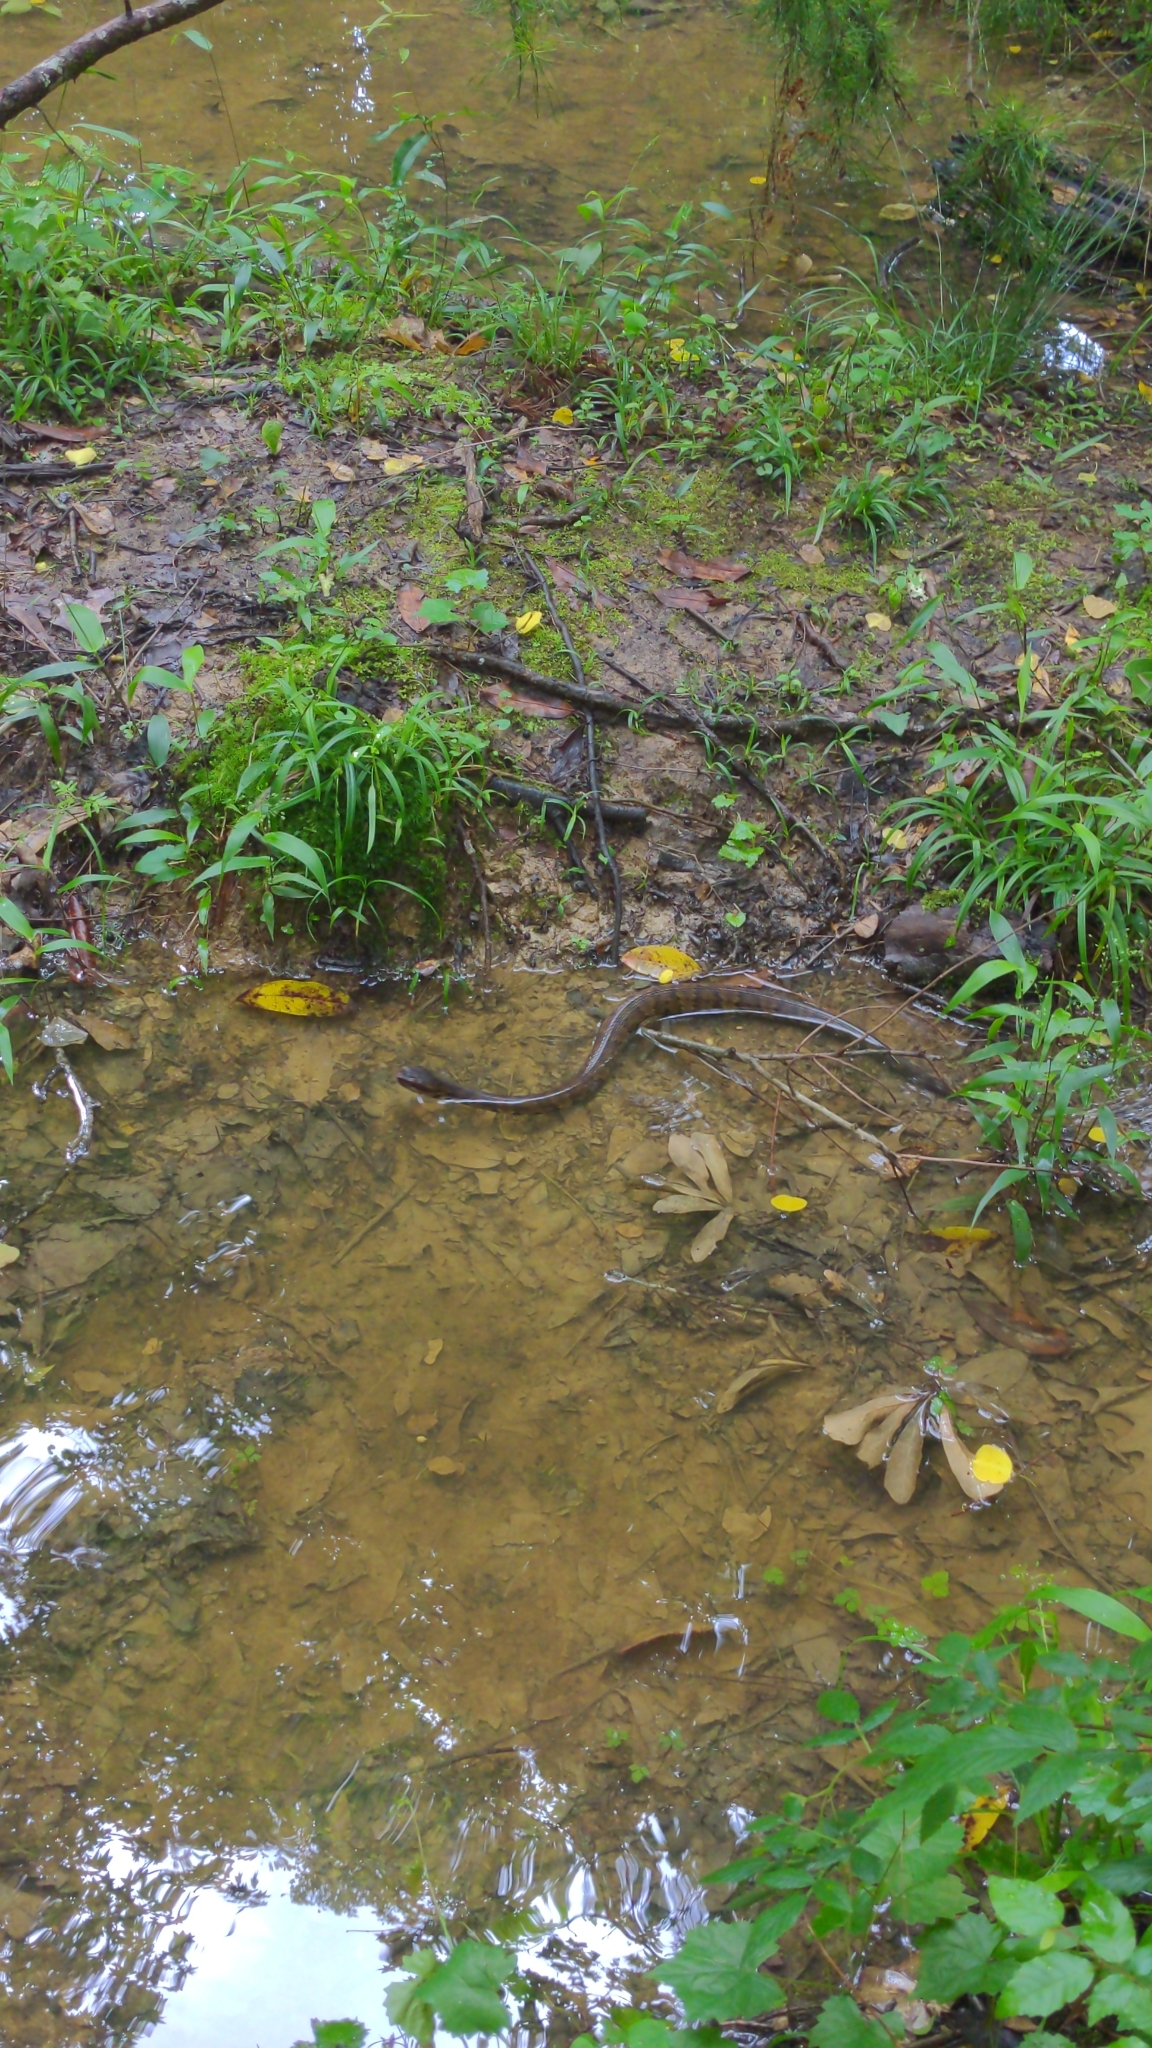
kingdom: Animalia
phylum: Chordata
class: Squamata
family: Viperidae
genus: Agkistrodon
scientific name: Agkistrodon piscivorus
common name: Cottonmouth
